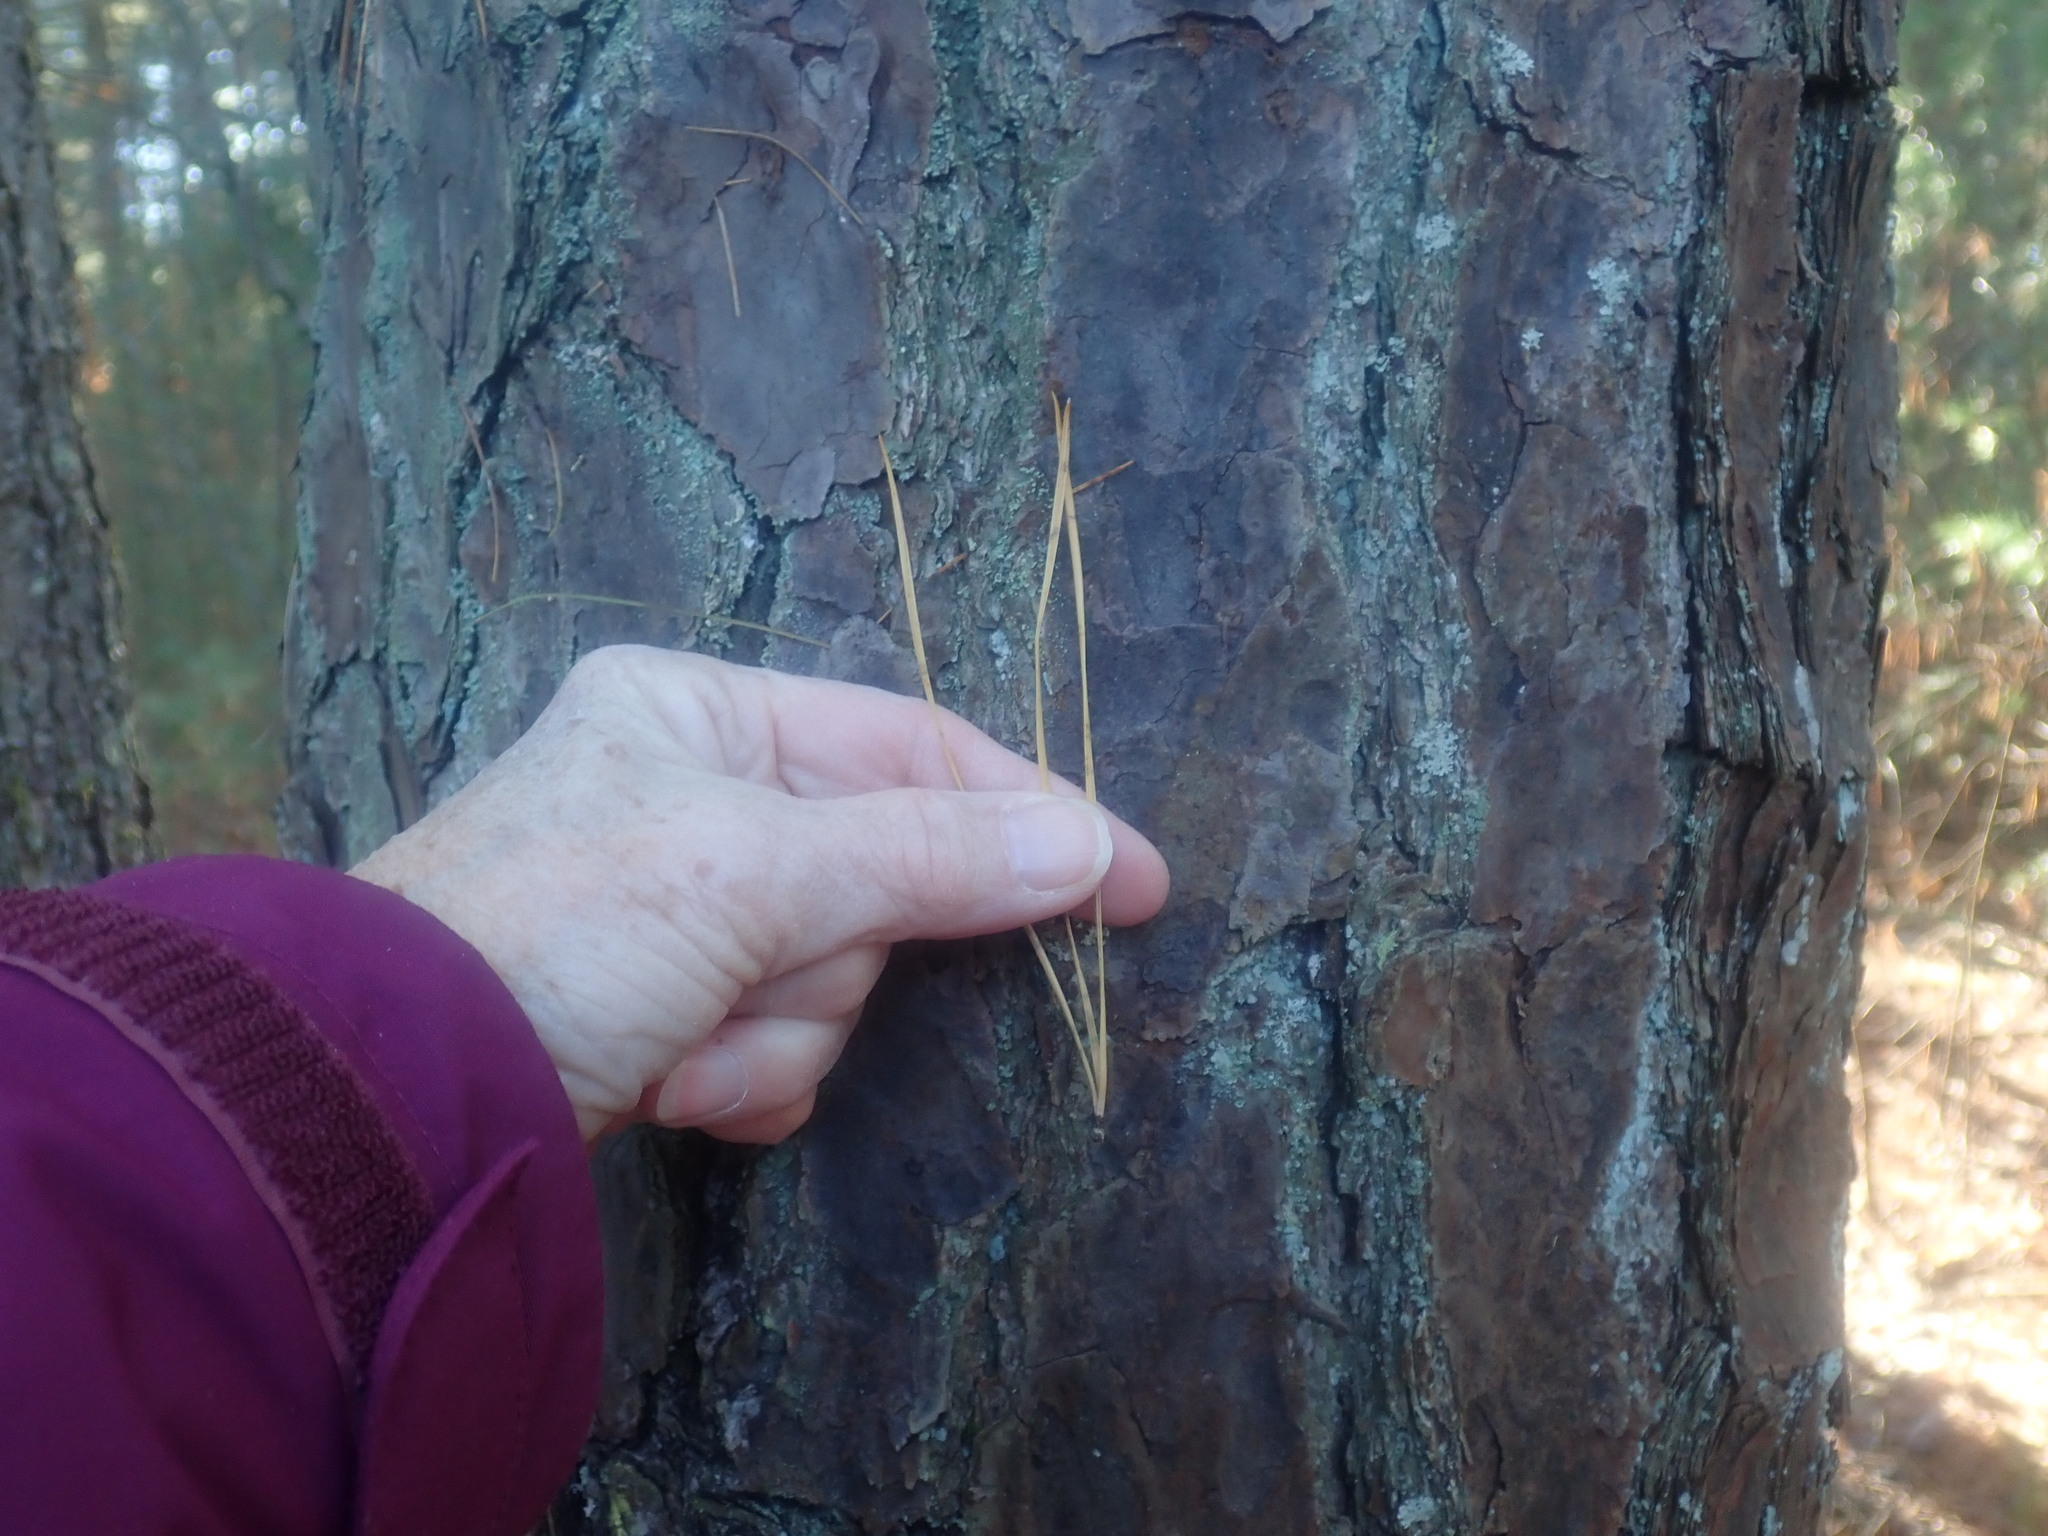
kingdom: Plantae
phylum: Tracheophyta
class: Pinopsida
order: Pinales
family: Pinaceae
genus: Pinus
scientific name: Pinus rigida
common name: Pitch pine
